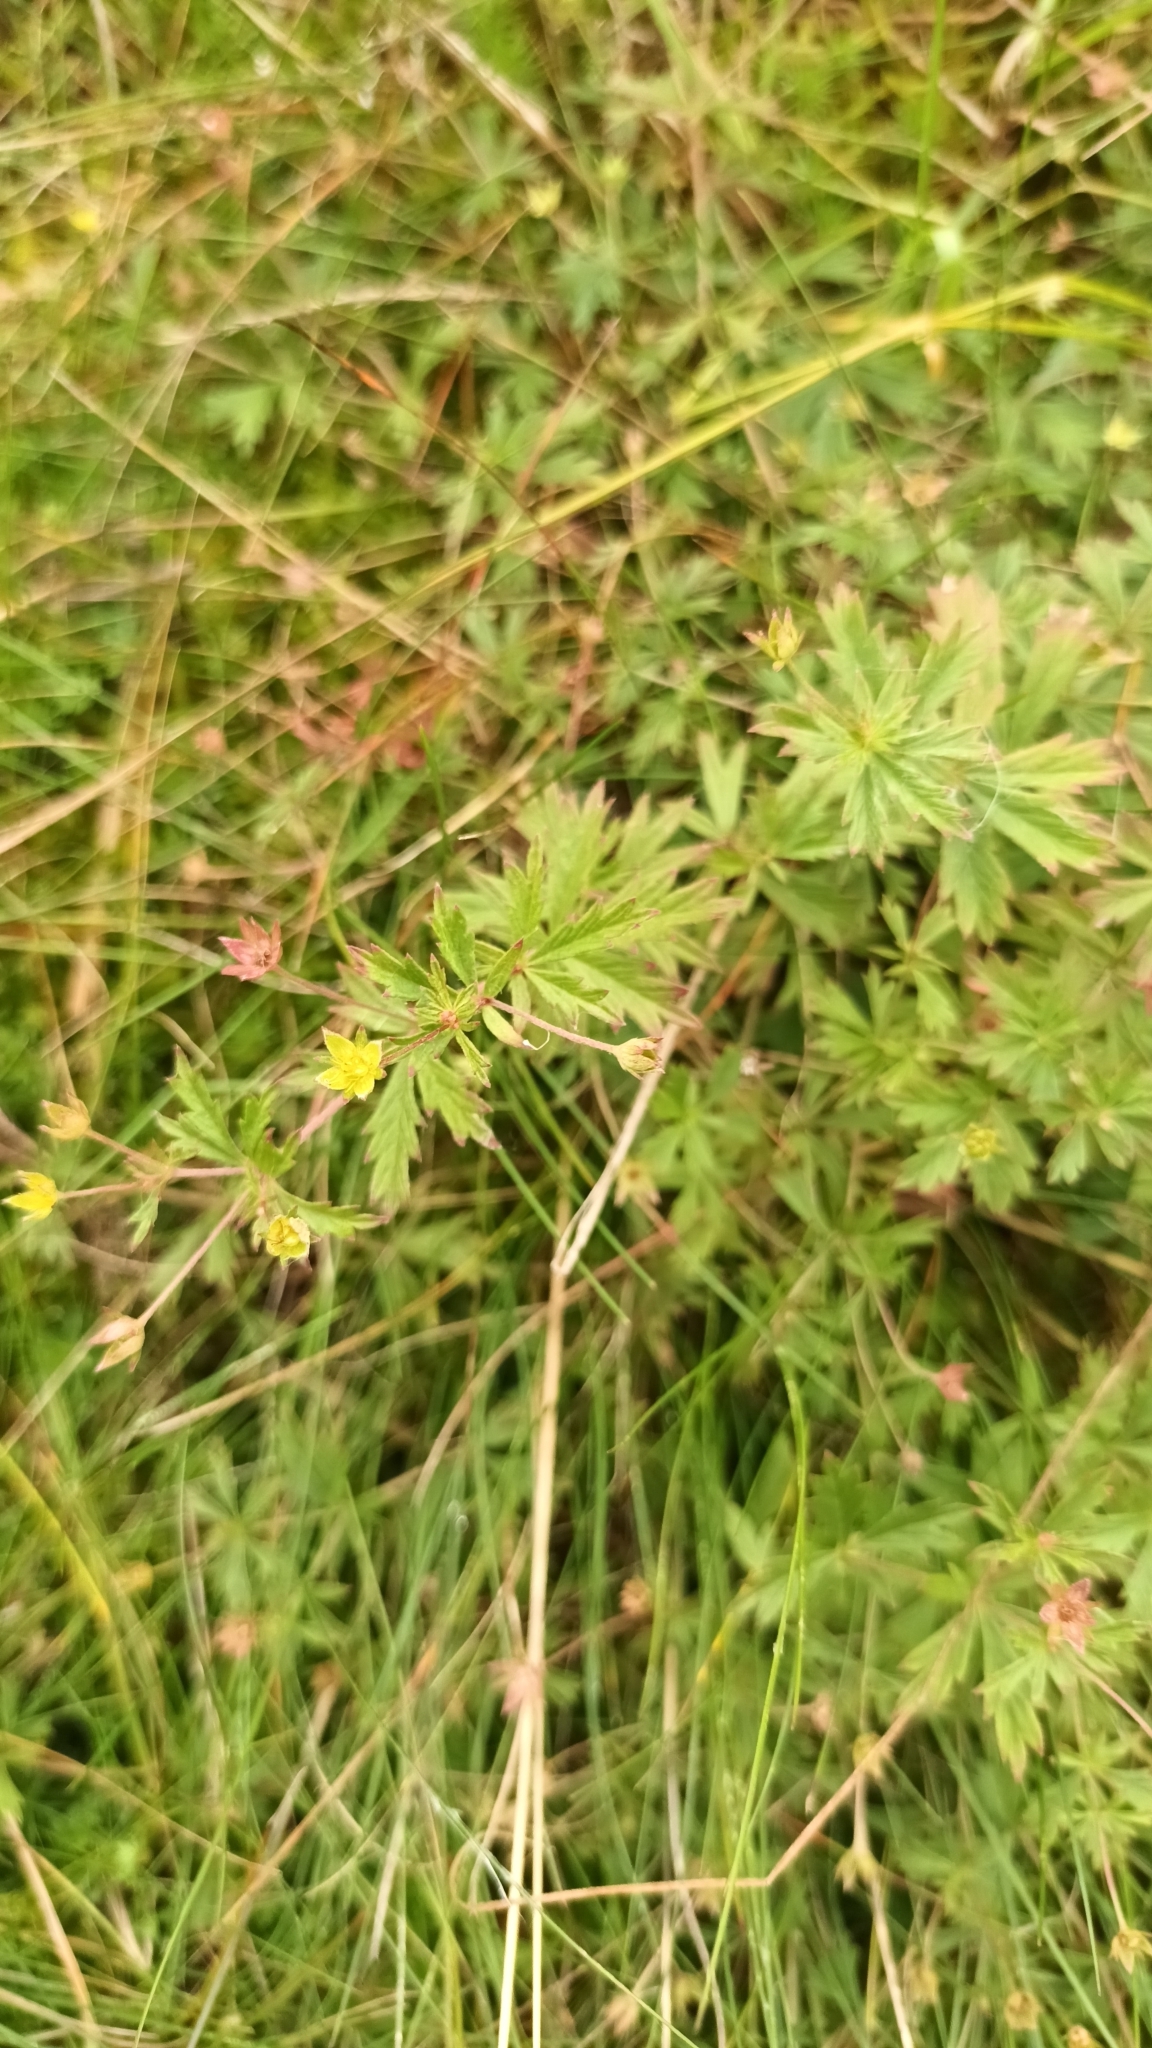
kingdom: Plantae
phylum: Tracheophyta
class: Magnoliopsida
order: Rosales
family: Rosaceae
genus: Potentilla
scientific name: Potentilla erecta
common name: Tormentil
